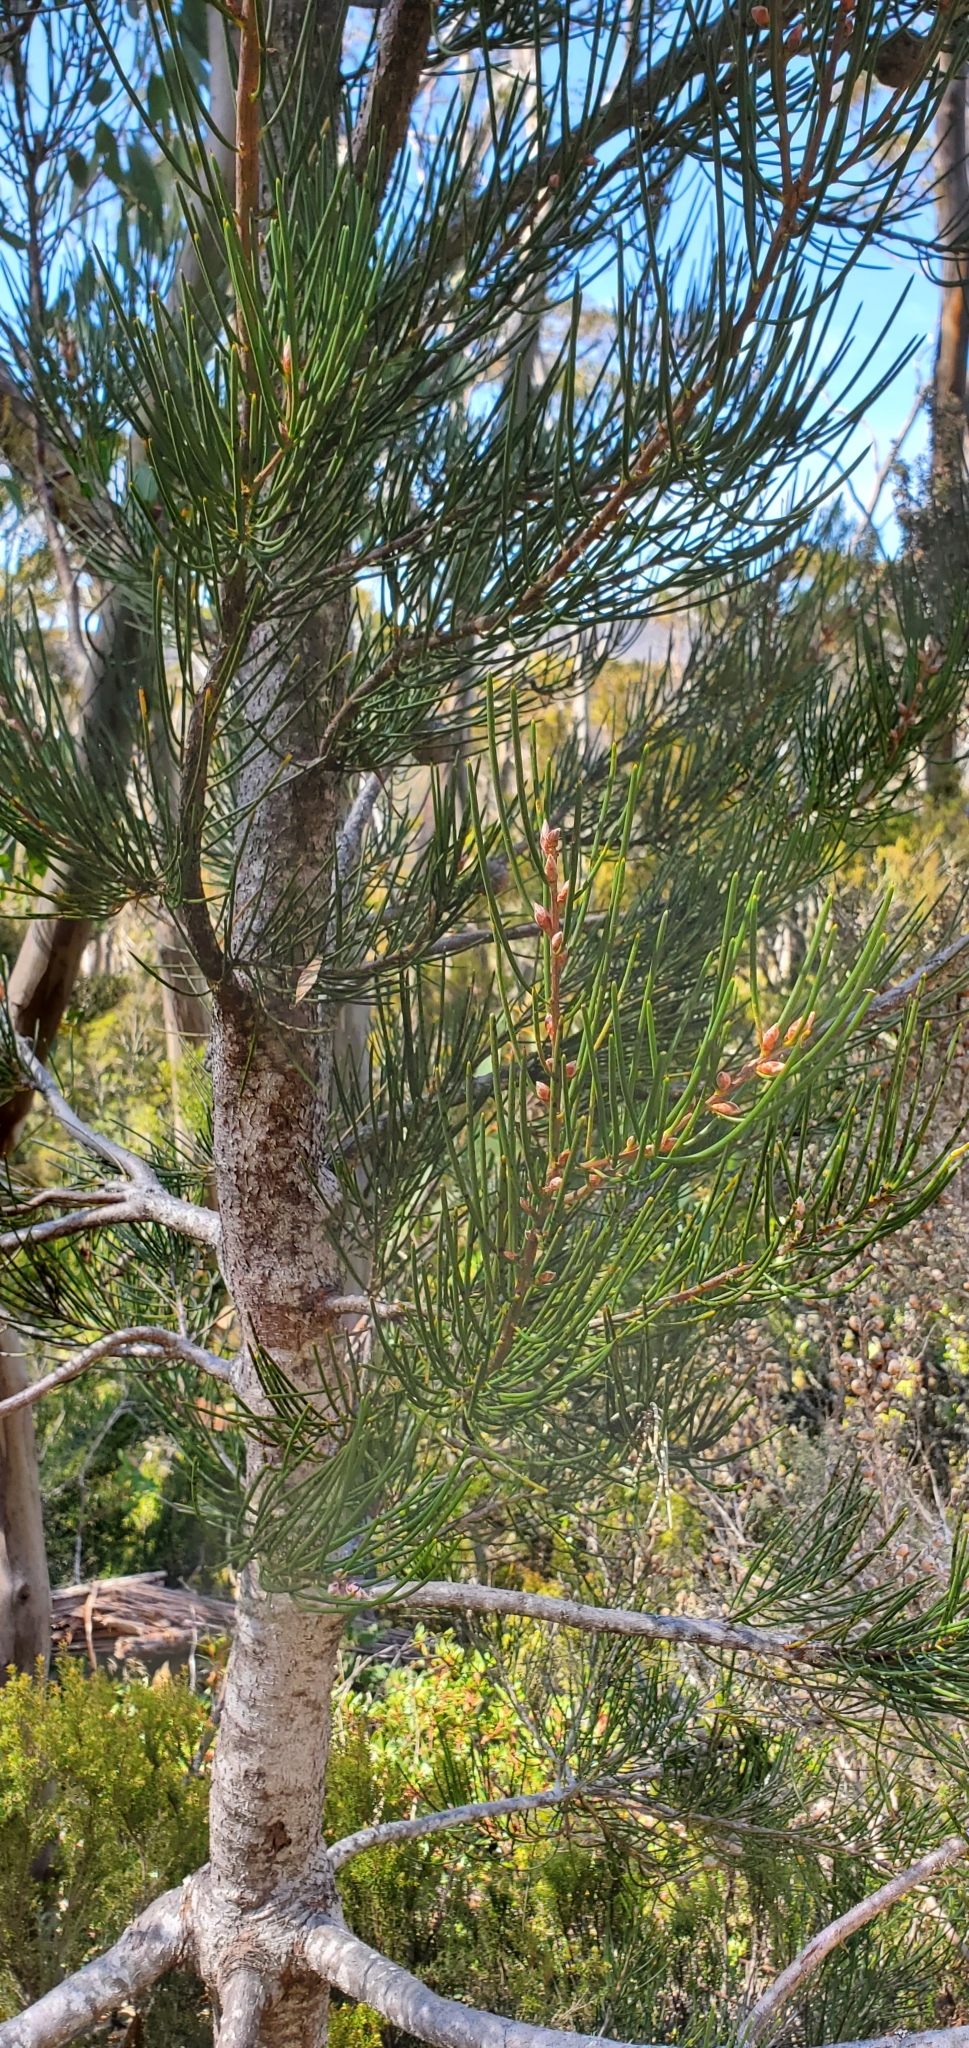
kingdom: Plantae
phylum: Tracheophyta
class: Magnoliopsida
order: Proteales
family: Proteaceae
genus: Hakea
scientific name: Hakea lissosperma
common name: Mountain needlewood
